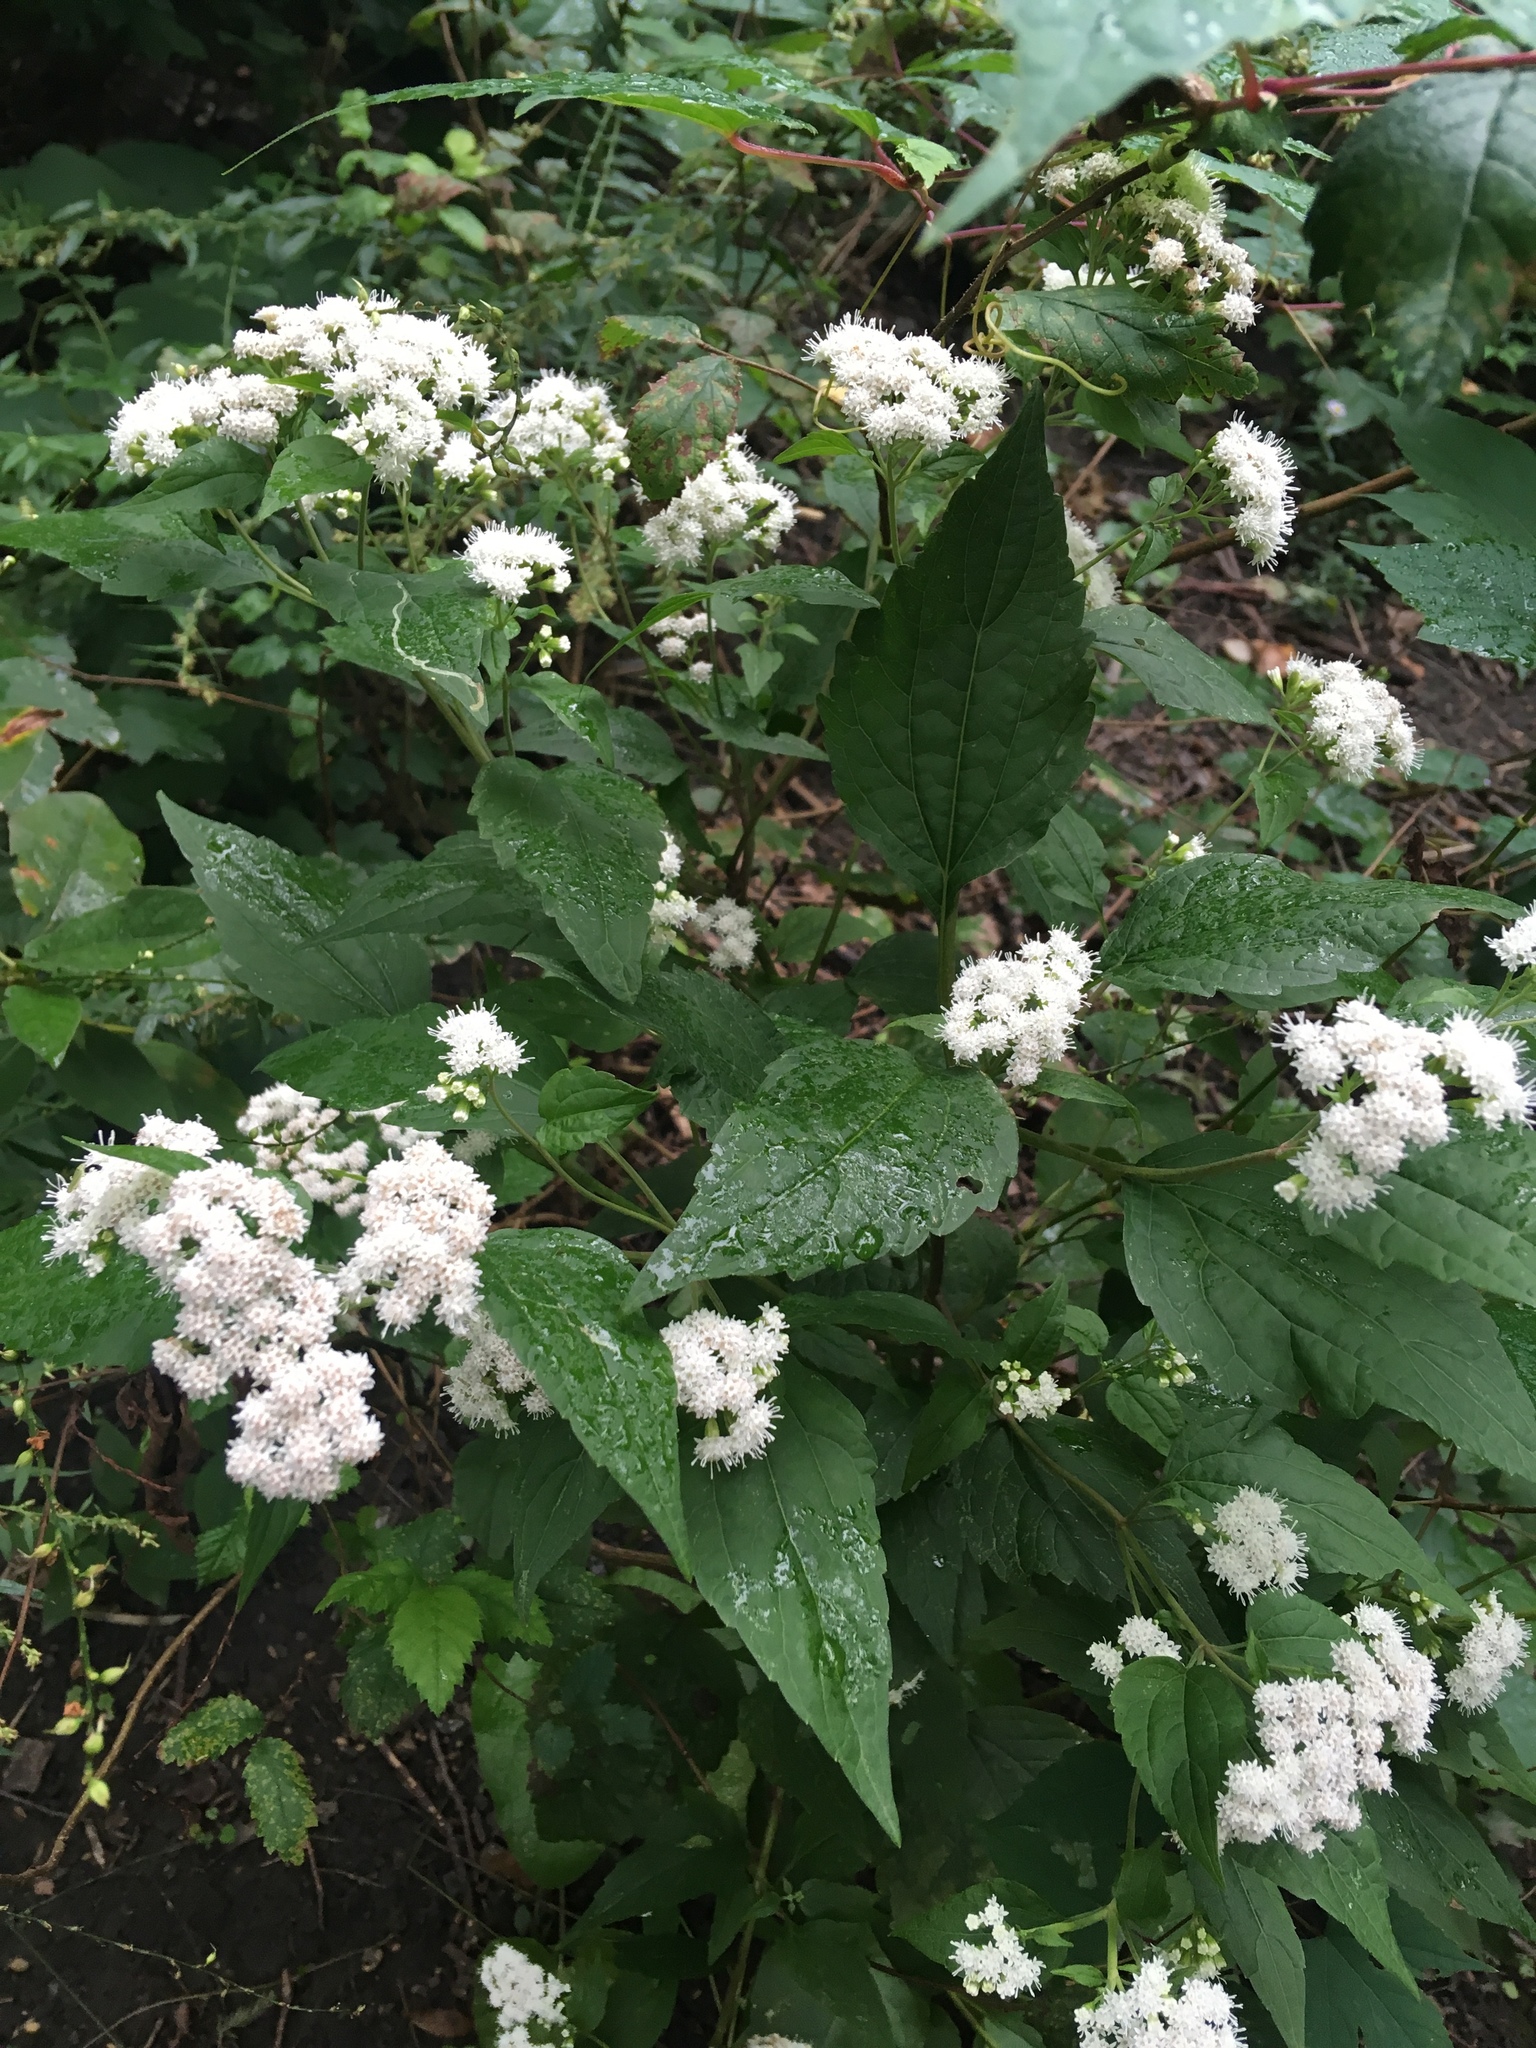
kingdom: Plantae
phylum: Tracheophyta
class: Magnoliopsida
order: Asterales
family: Asteraceae
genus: Ageratina
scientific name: Ageratina altissima
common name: White snakeroot
